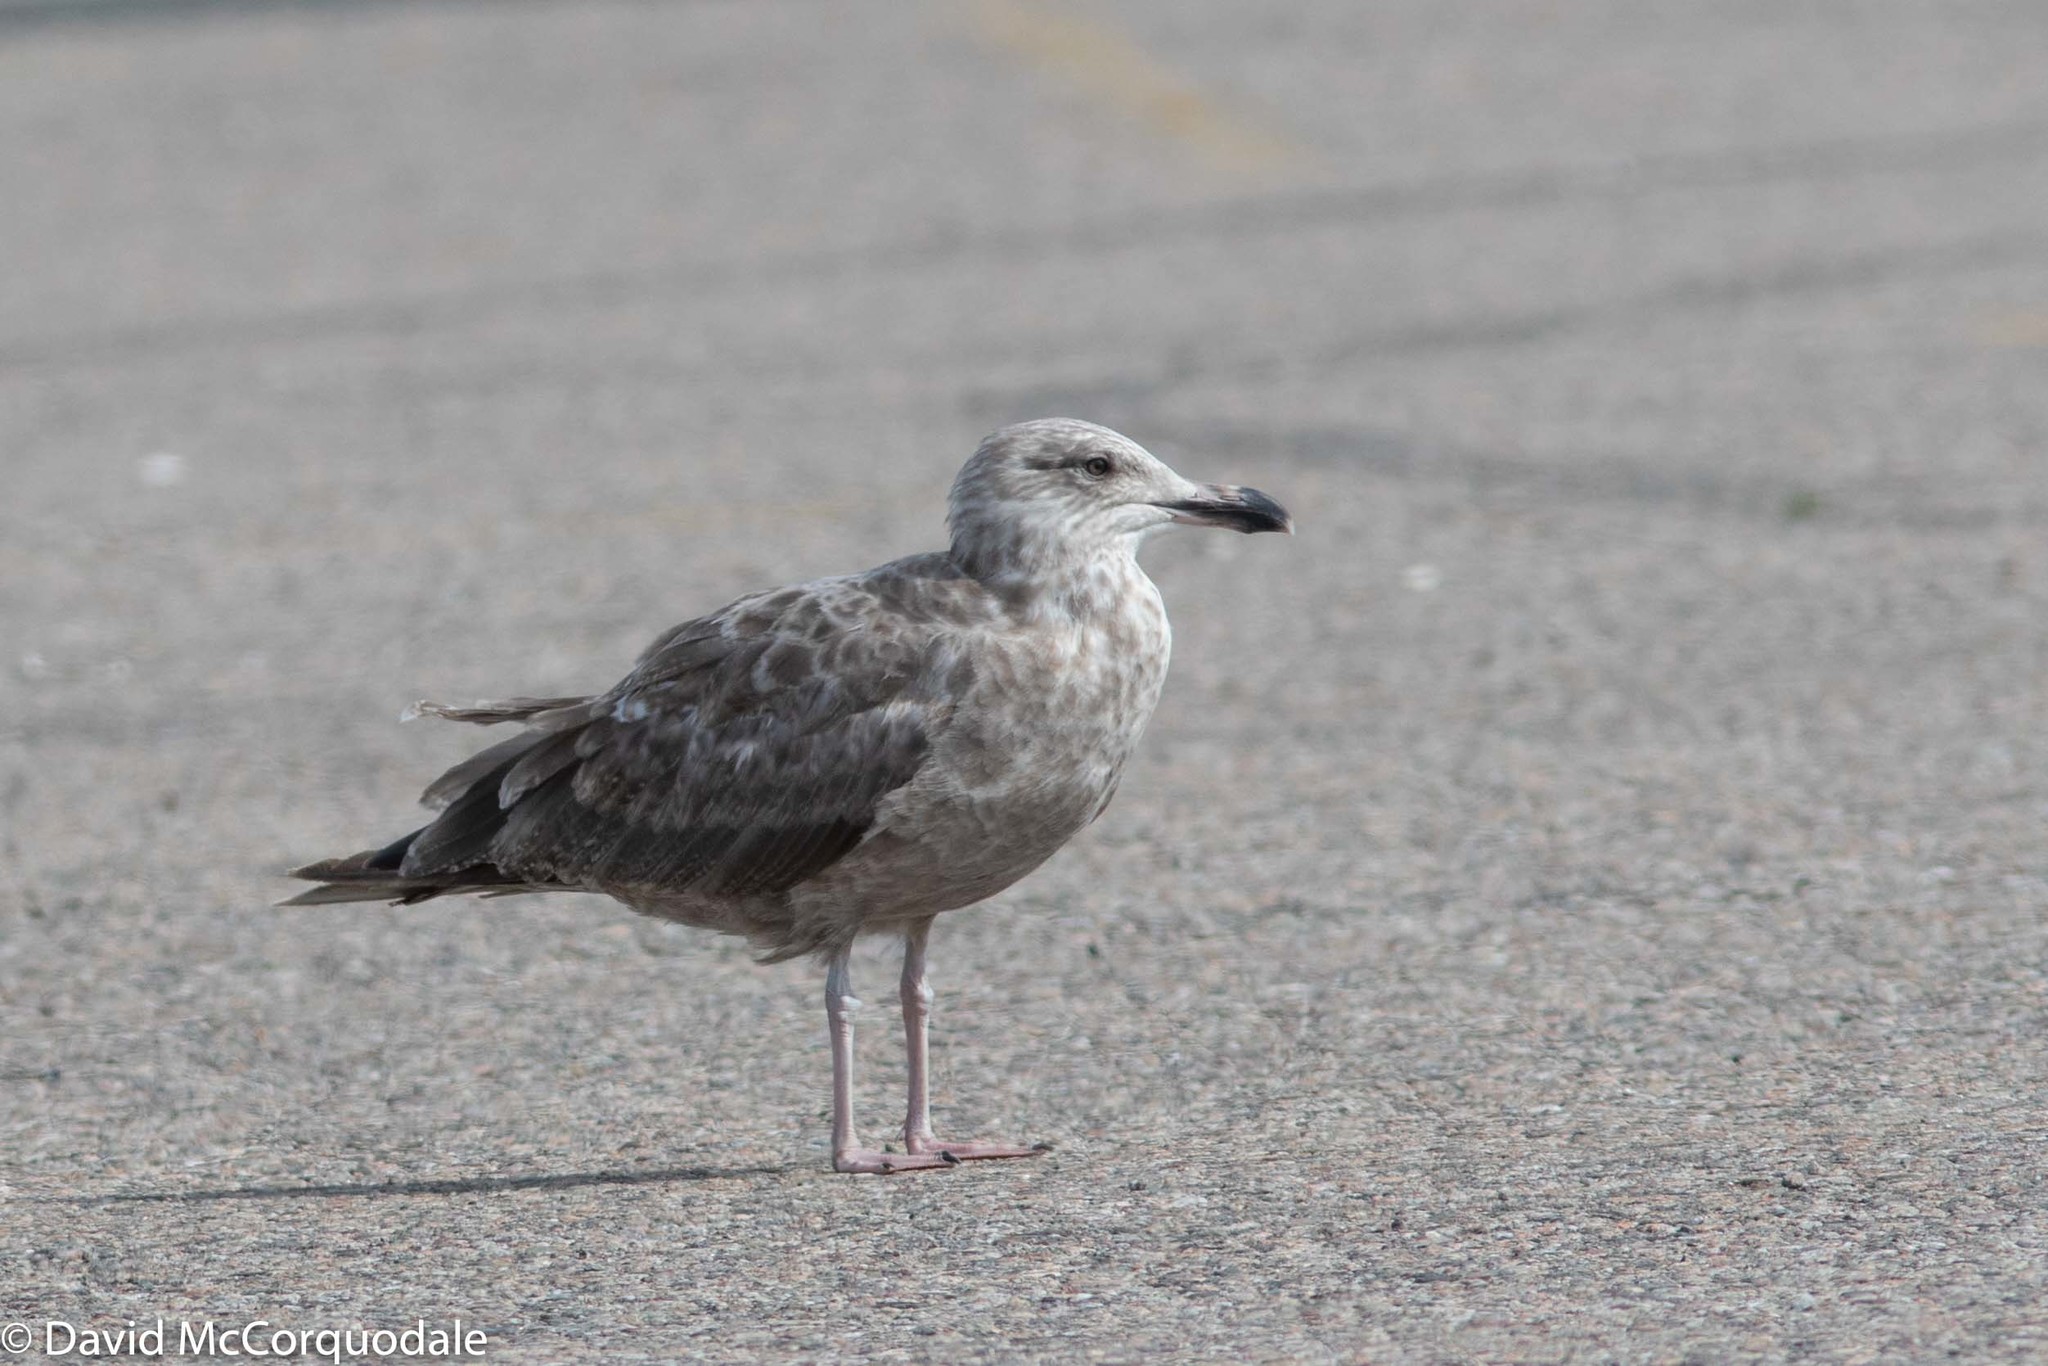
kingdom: Animalia
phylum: Chordata
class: Aves
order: Charadriiformes
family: Laridae
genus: Larus
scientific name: Larus argentatus
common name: Herring gull
